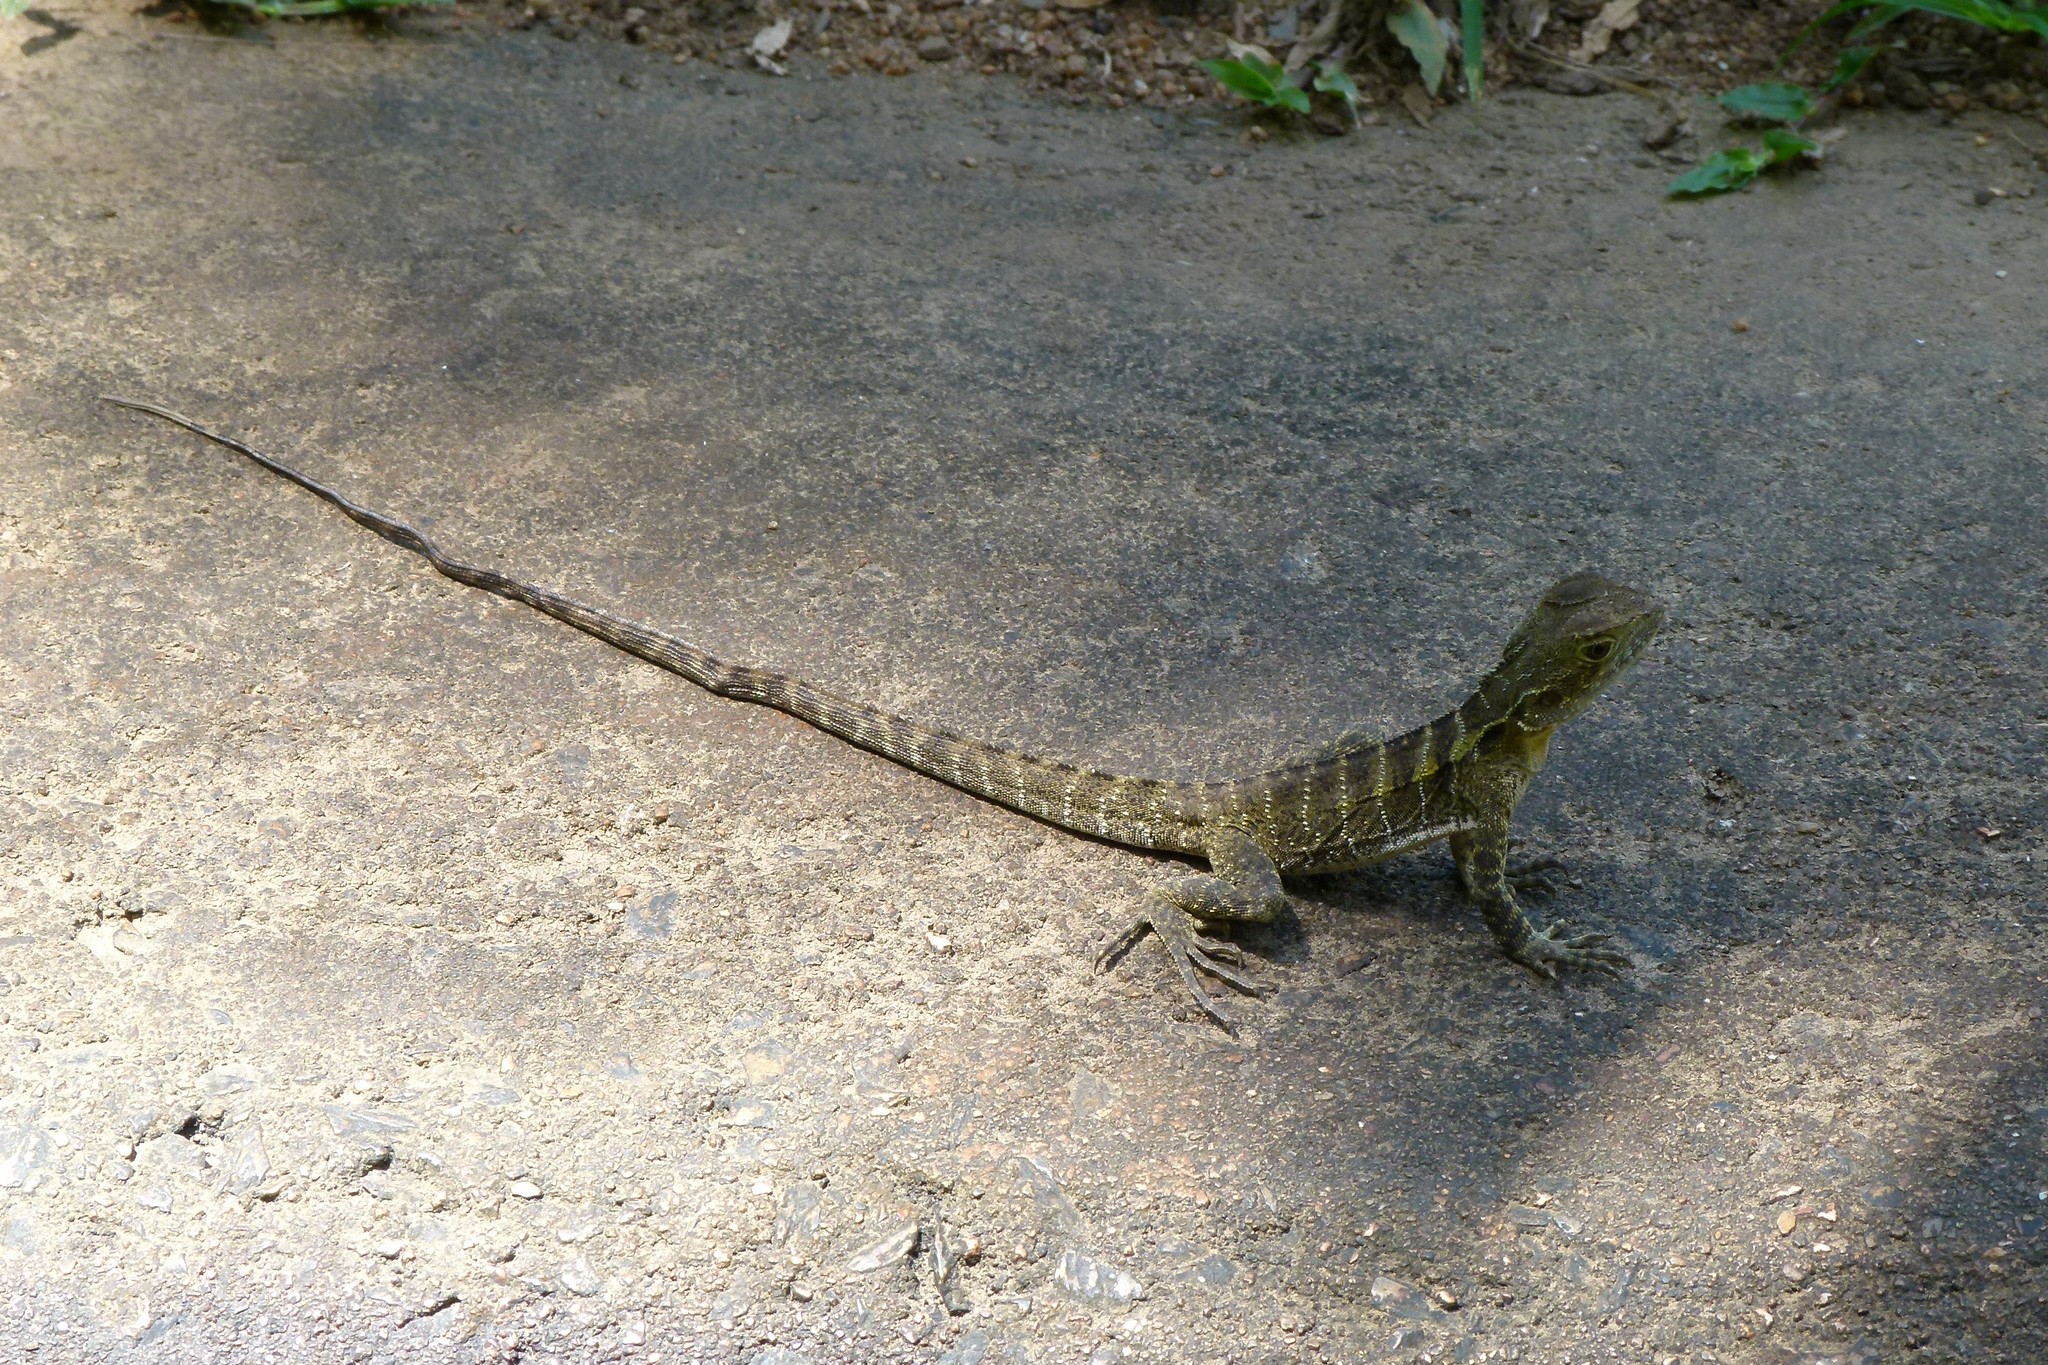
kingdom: Animalia
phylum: Chordata
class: Squamata
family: Agamidae
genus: Intellagama
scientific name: Intellagama lesueurii
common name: Eastern water dragon
